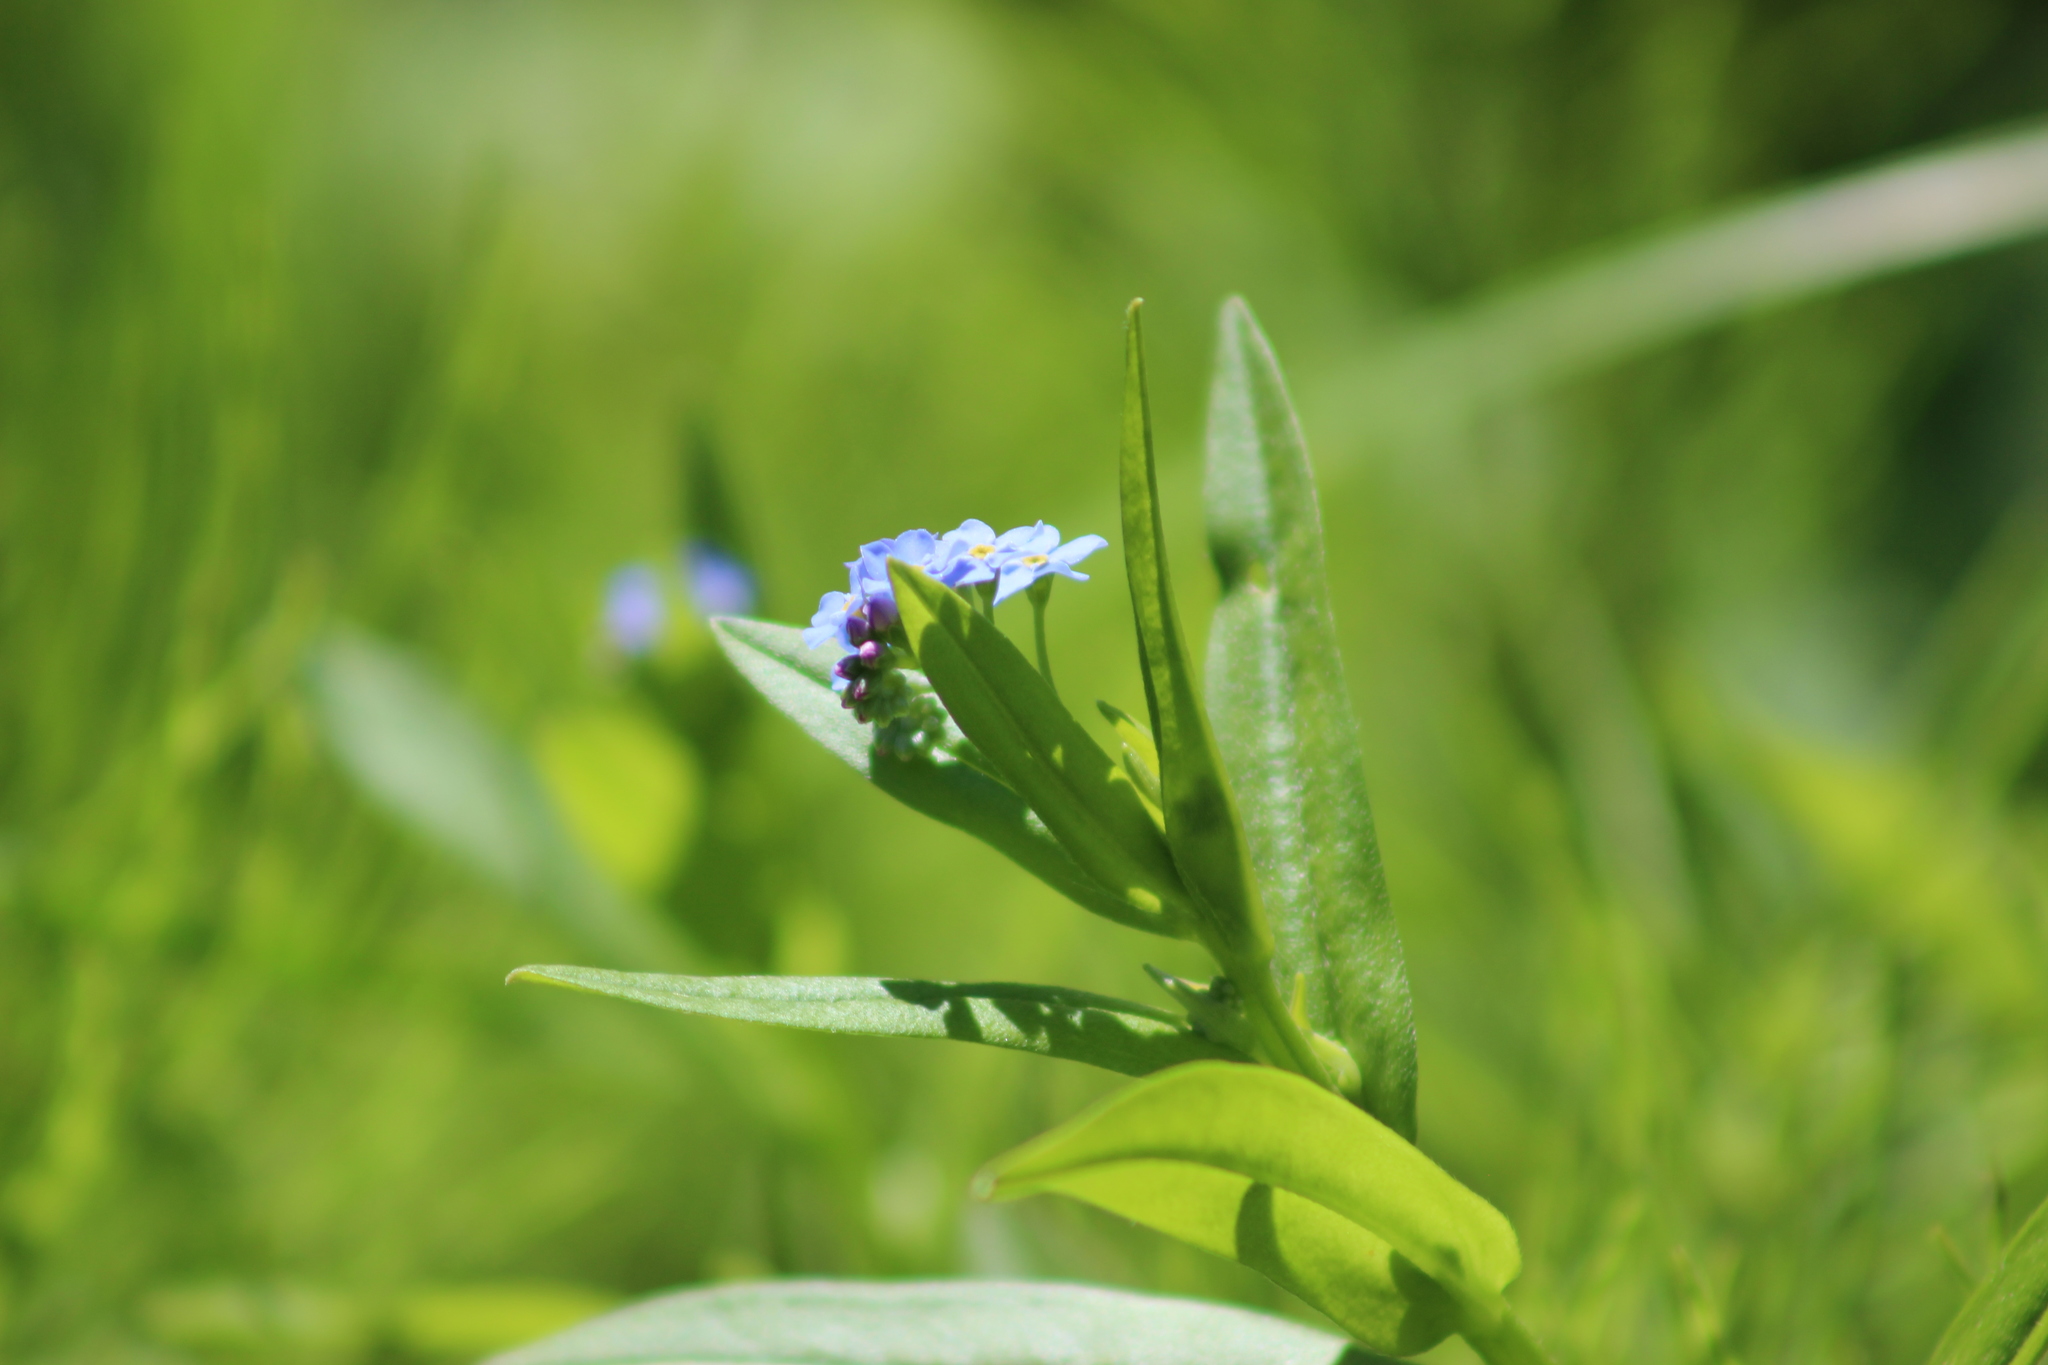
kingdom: Plantae
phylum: Tracheophyta
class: Magnoliopsida
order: Boraginales
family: Boraginaceae
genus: Myosotis
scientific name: Myosotis scorpioides
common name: Water forget-me-not
